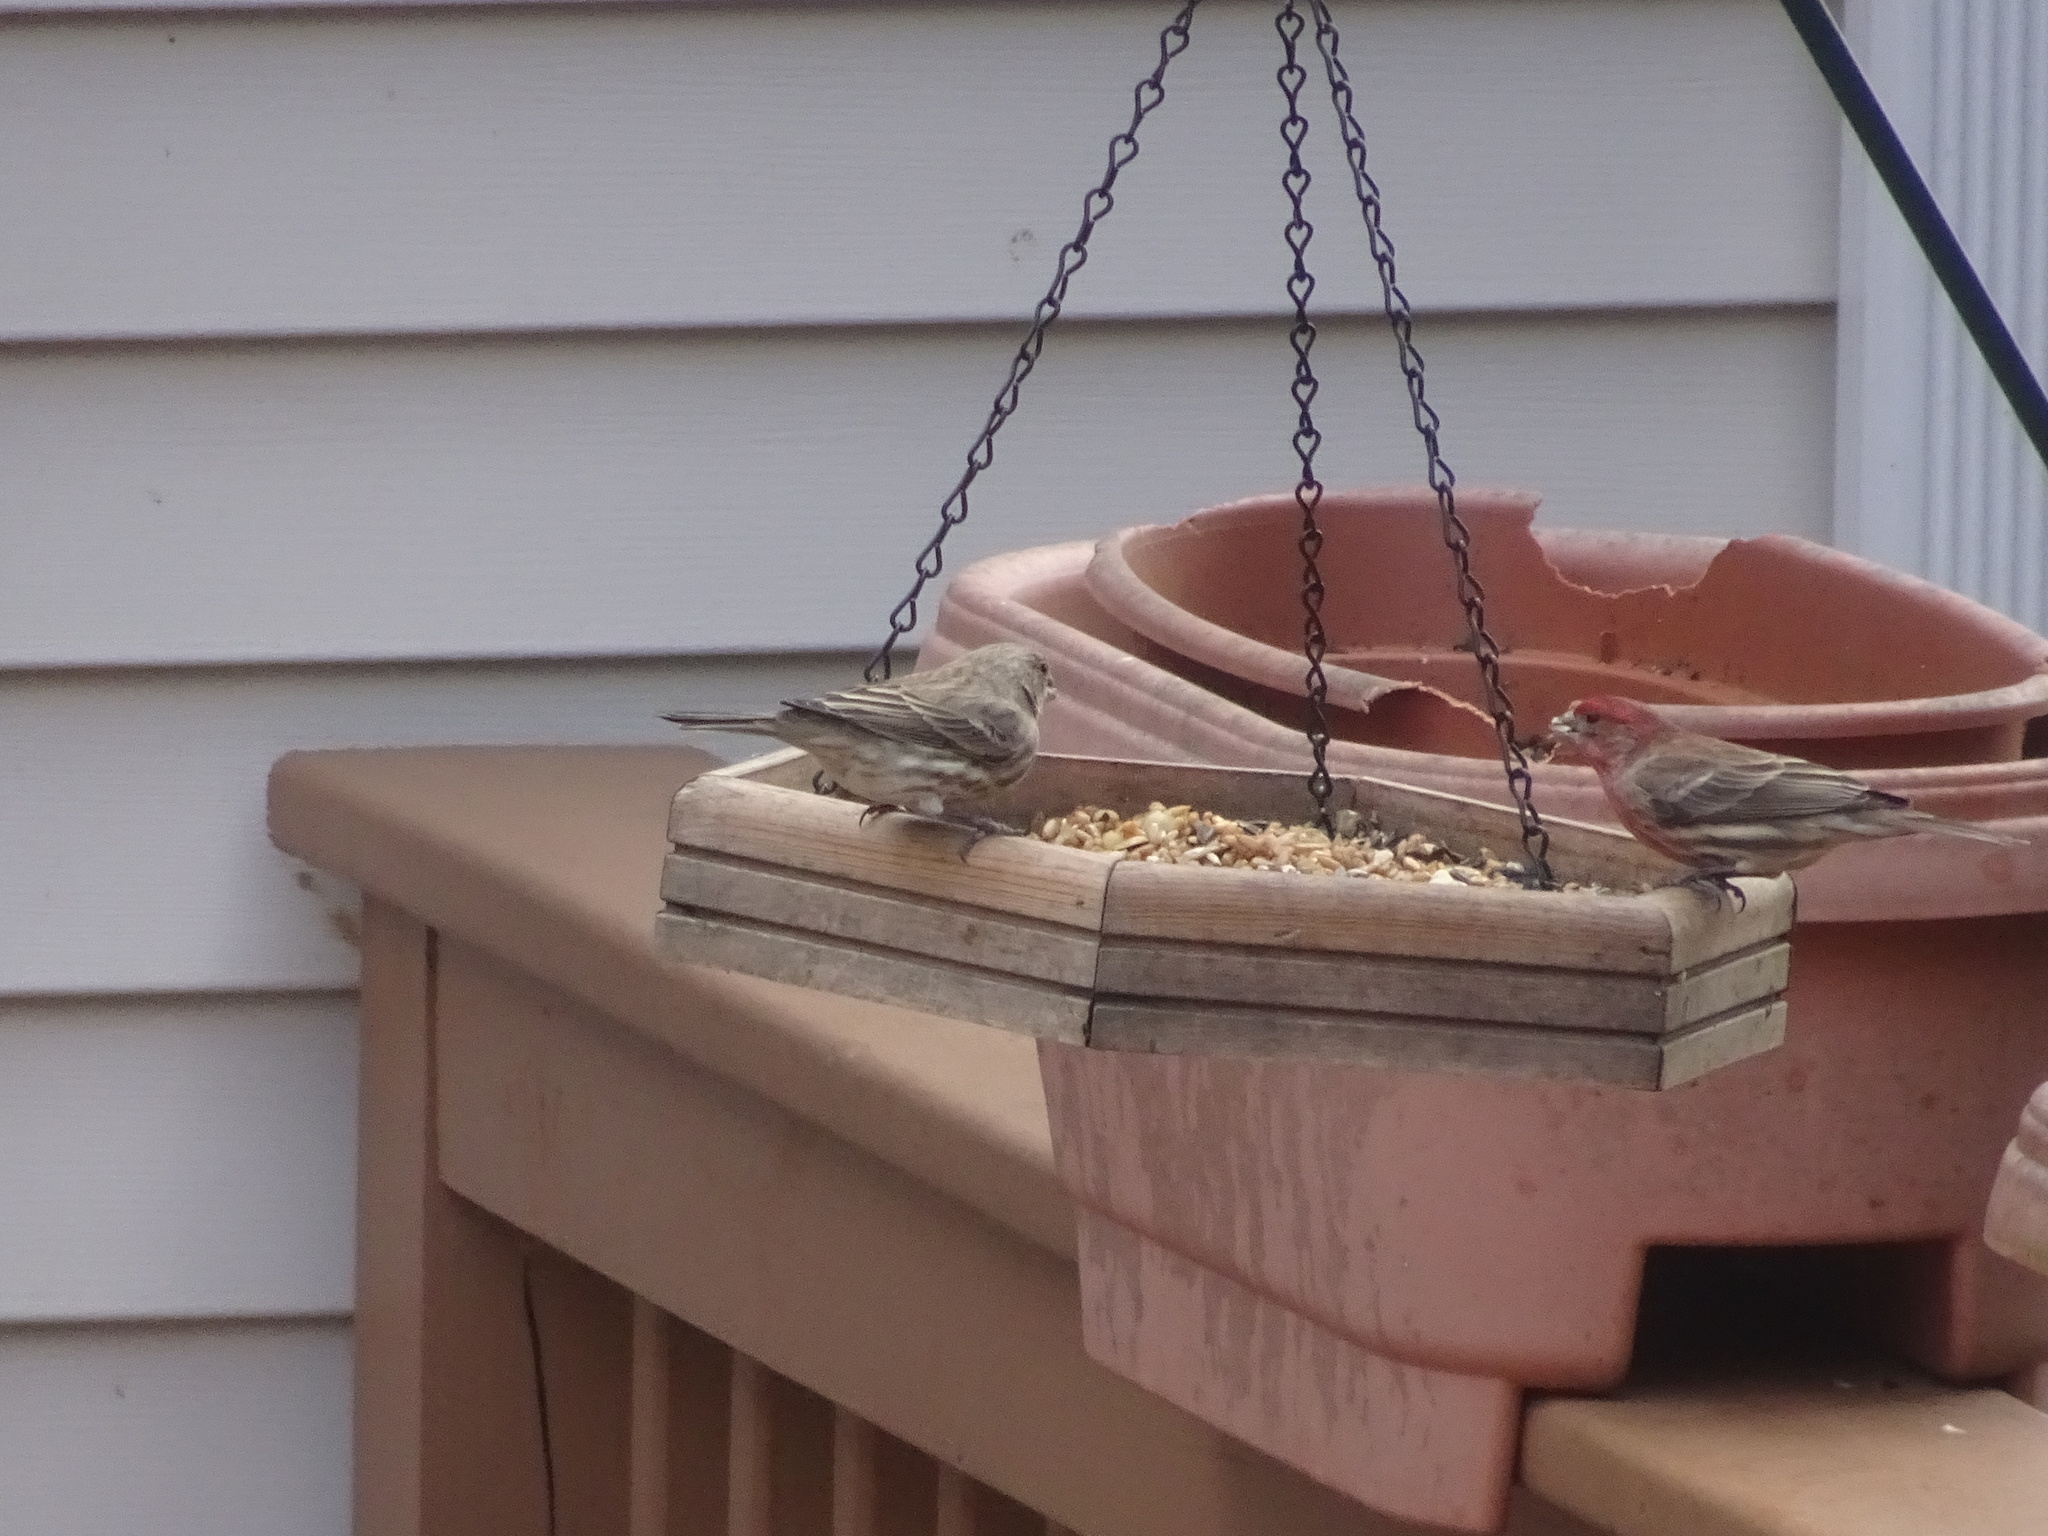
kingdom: Animalia
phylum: Chordata
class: Aves
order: Passeriformes
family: Fringillidae
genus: Haemorhous
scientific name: Haemorhous mexicanus
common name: House finch
